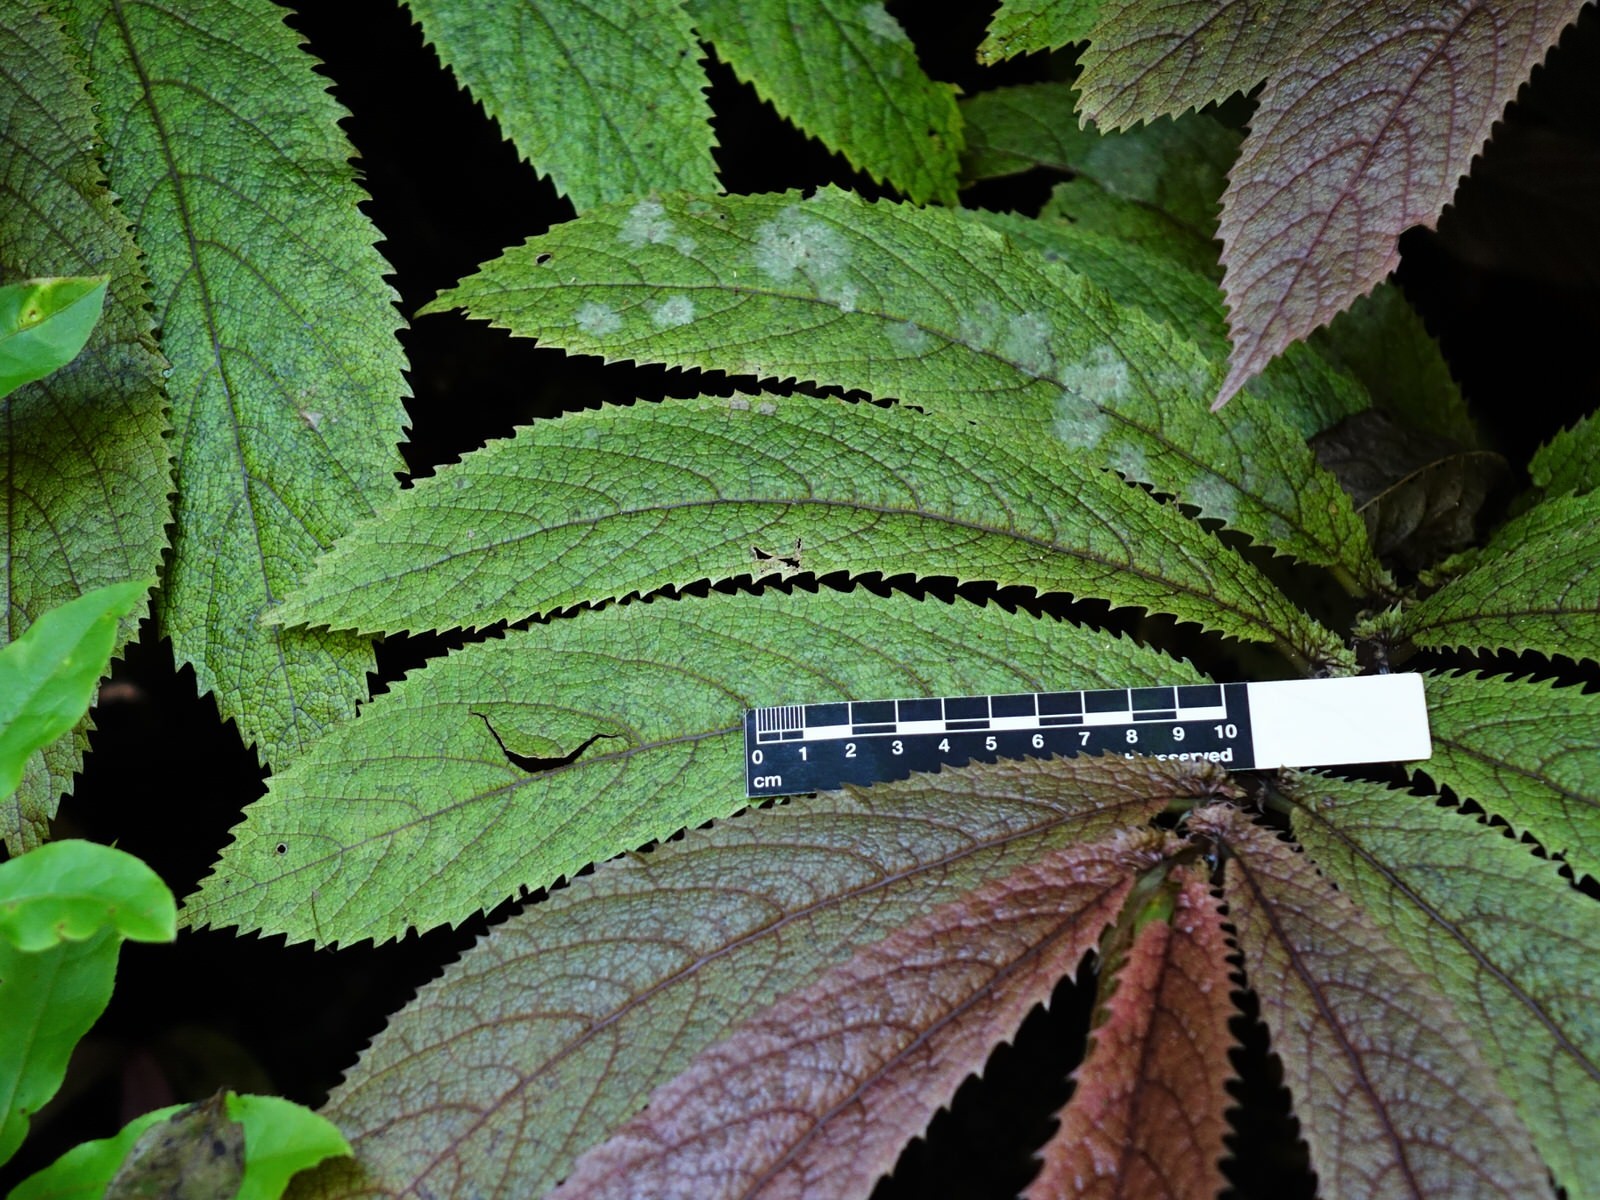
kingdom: Plantae
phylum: Tracheophyta
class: Magnoliopsida
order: Rosales
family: Urticaceae
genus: Elatostema
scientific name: Elatostema rugosum
